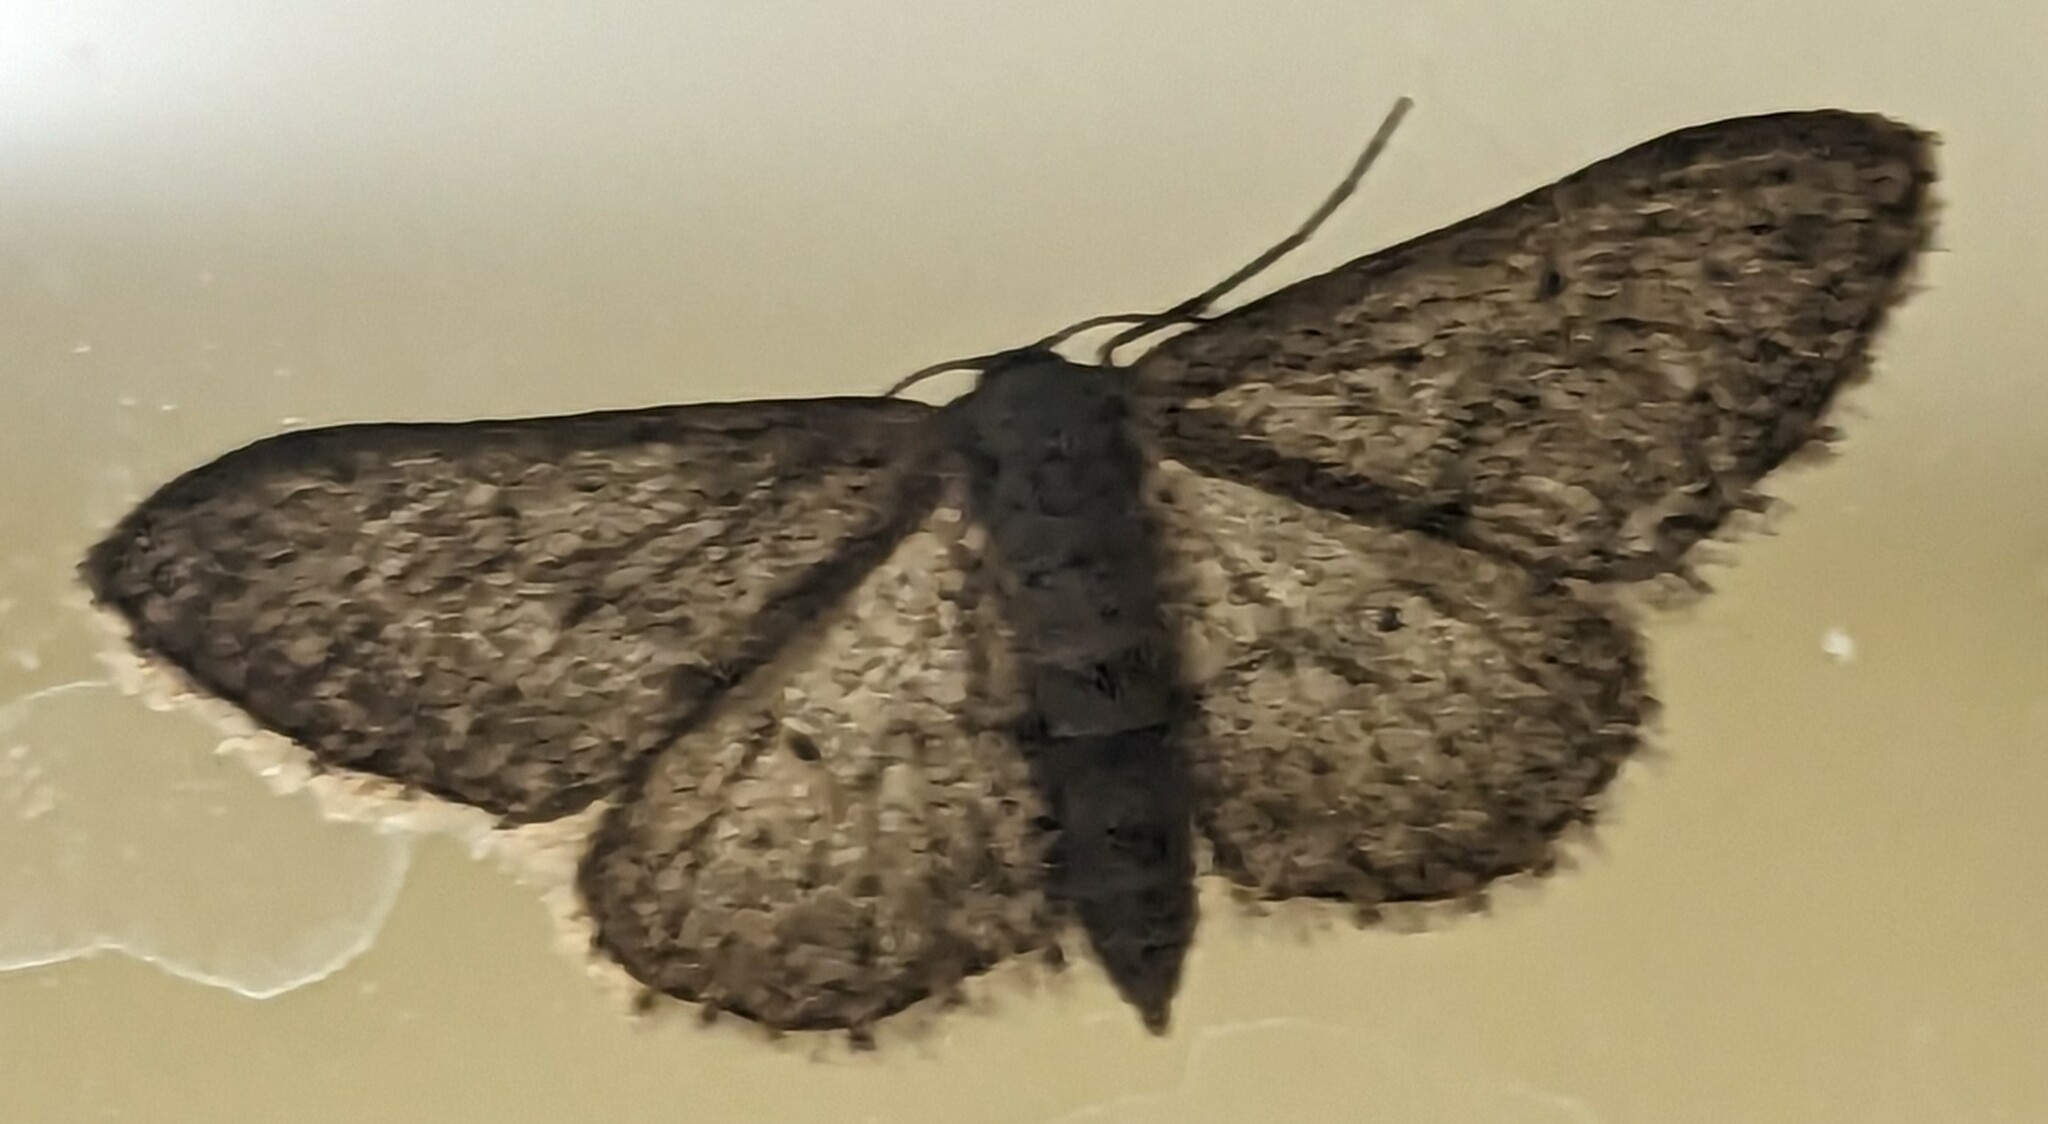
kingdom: Animalia
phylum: Arthropoda
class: Insecta
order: Lepidoptera
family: Geometridae
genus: Idaea
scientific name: Idaea seriata
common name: Small dusty wave
